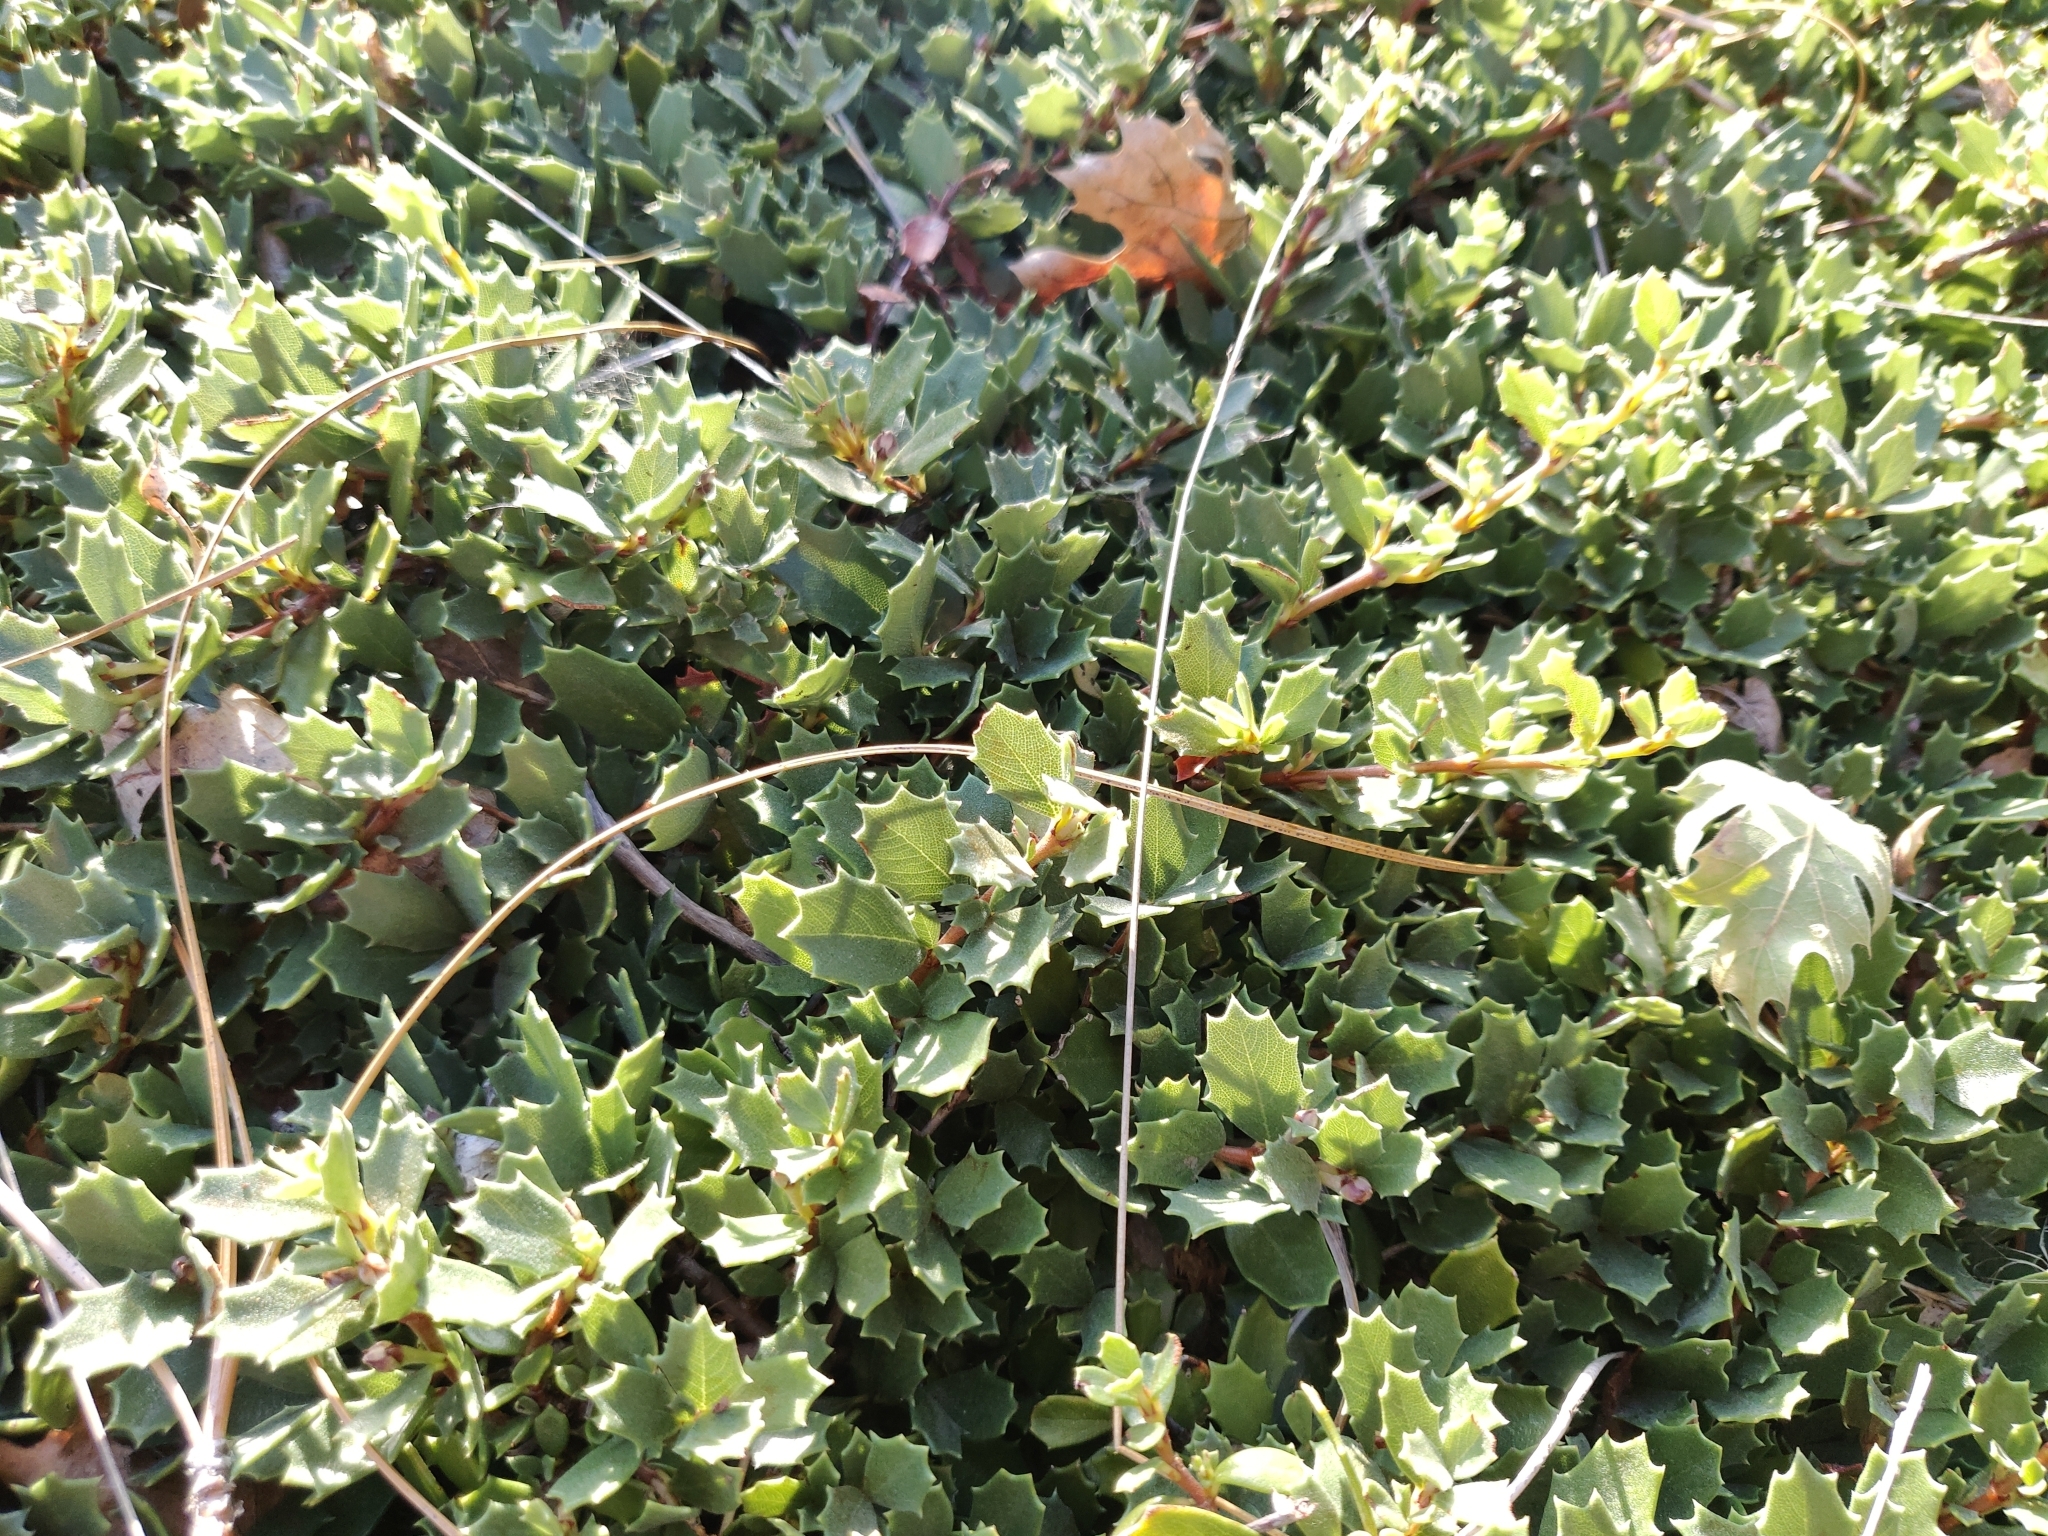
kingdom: Plantae
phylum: Tracheophyta
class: Magnoliopsida
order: Rosales
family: Rhamnaceae
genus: Ceanothus
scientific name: Ceanothus prostratus
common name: Mahala-mat
